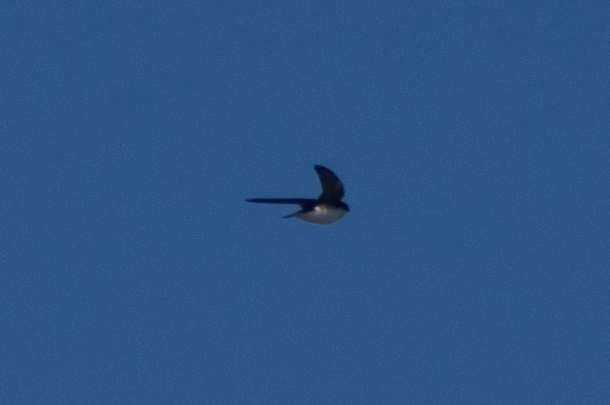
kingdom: Animalia
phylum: Chordata
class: Aves
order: Passeriformes
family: Hirundinidae
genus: Tachycineta
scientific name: Tachycineta bicolor
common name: Tree swallow
